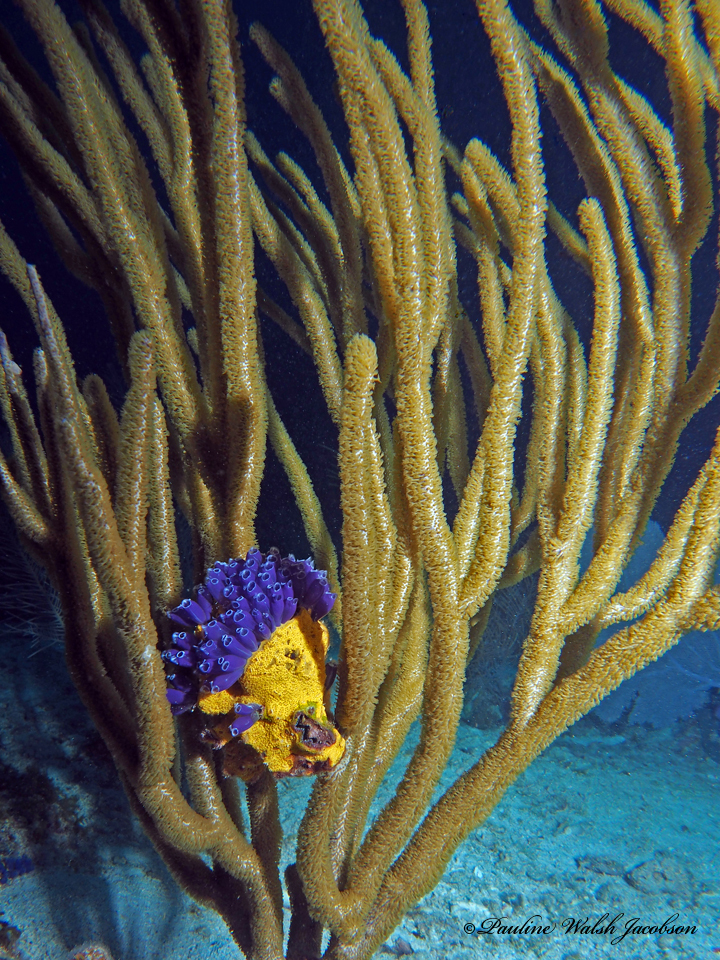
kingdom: Animalia
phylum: Chordata
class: Ascidiacea
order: Aplousobranchia
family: Clavelinidae
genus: Clavelina
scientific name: Clavelina puertosecensis
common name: Blue bell tunicate
